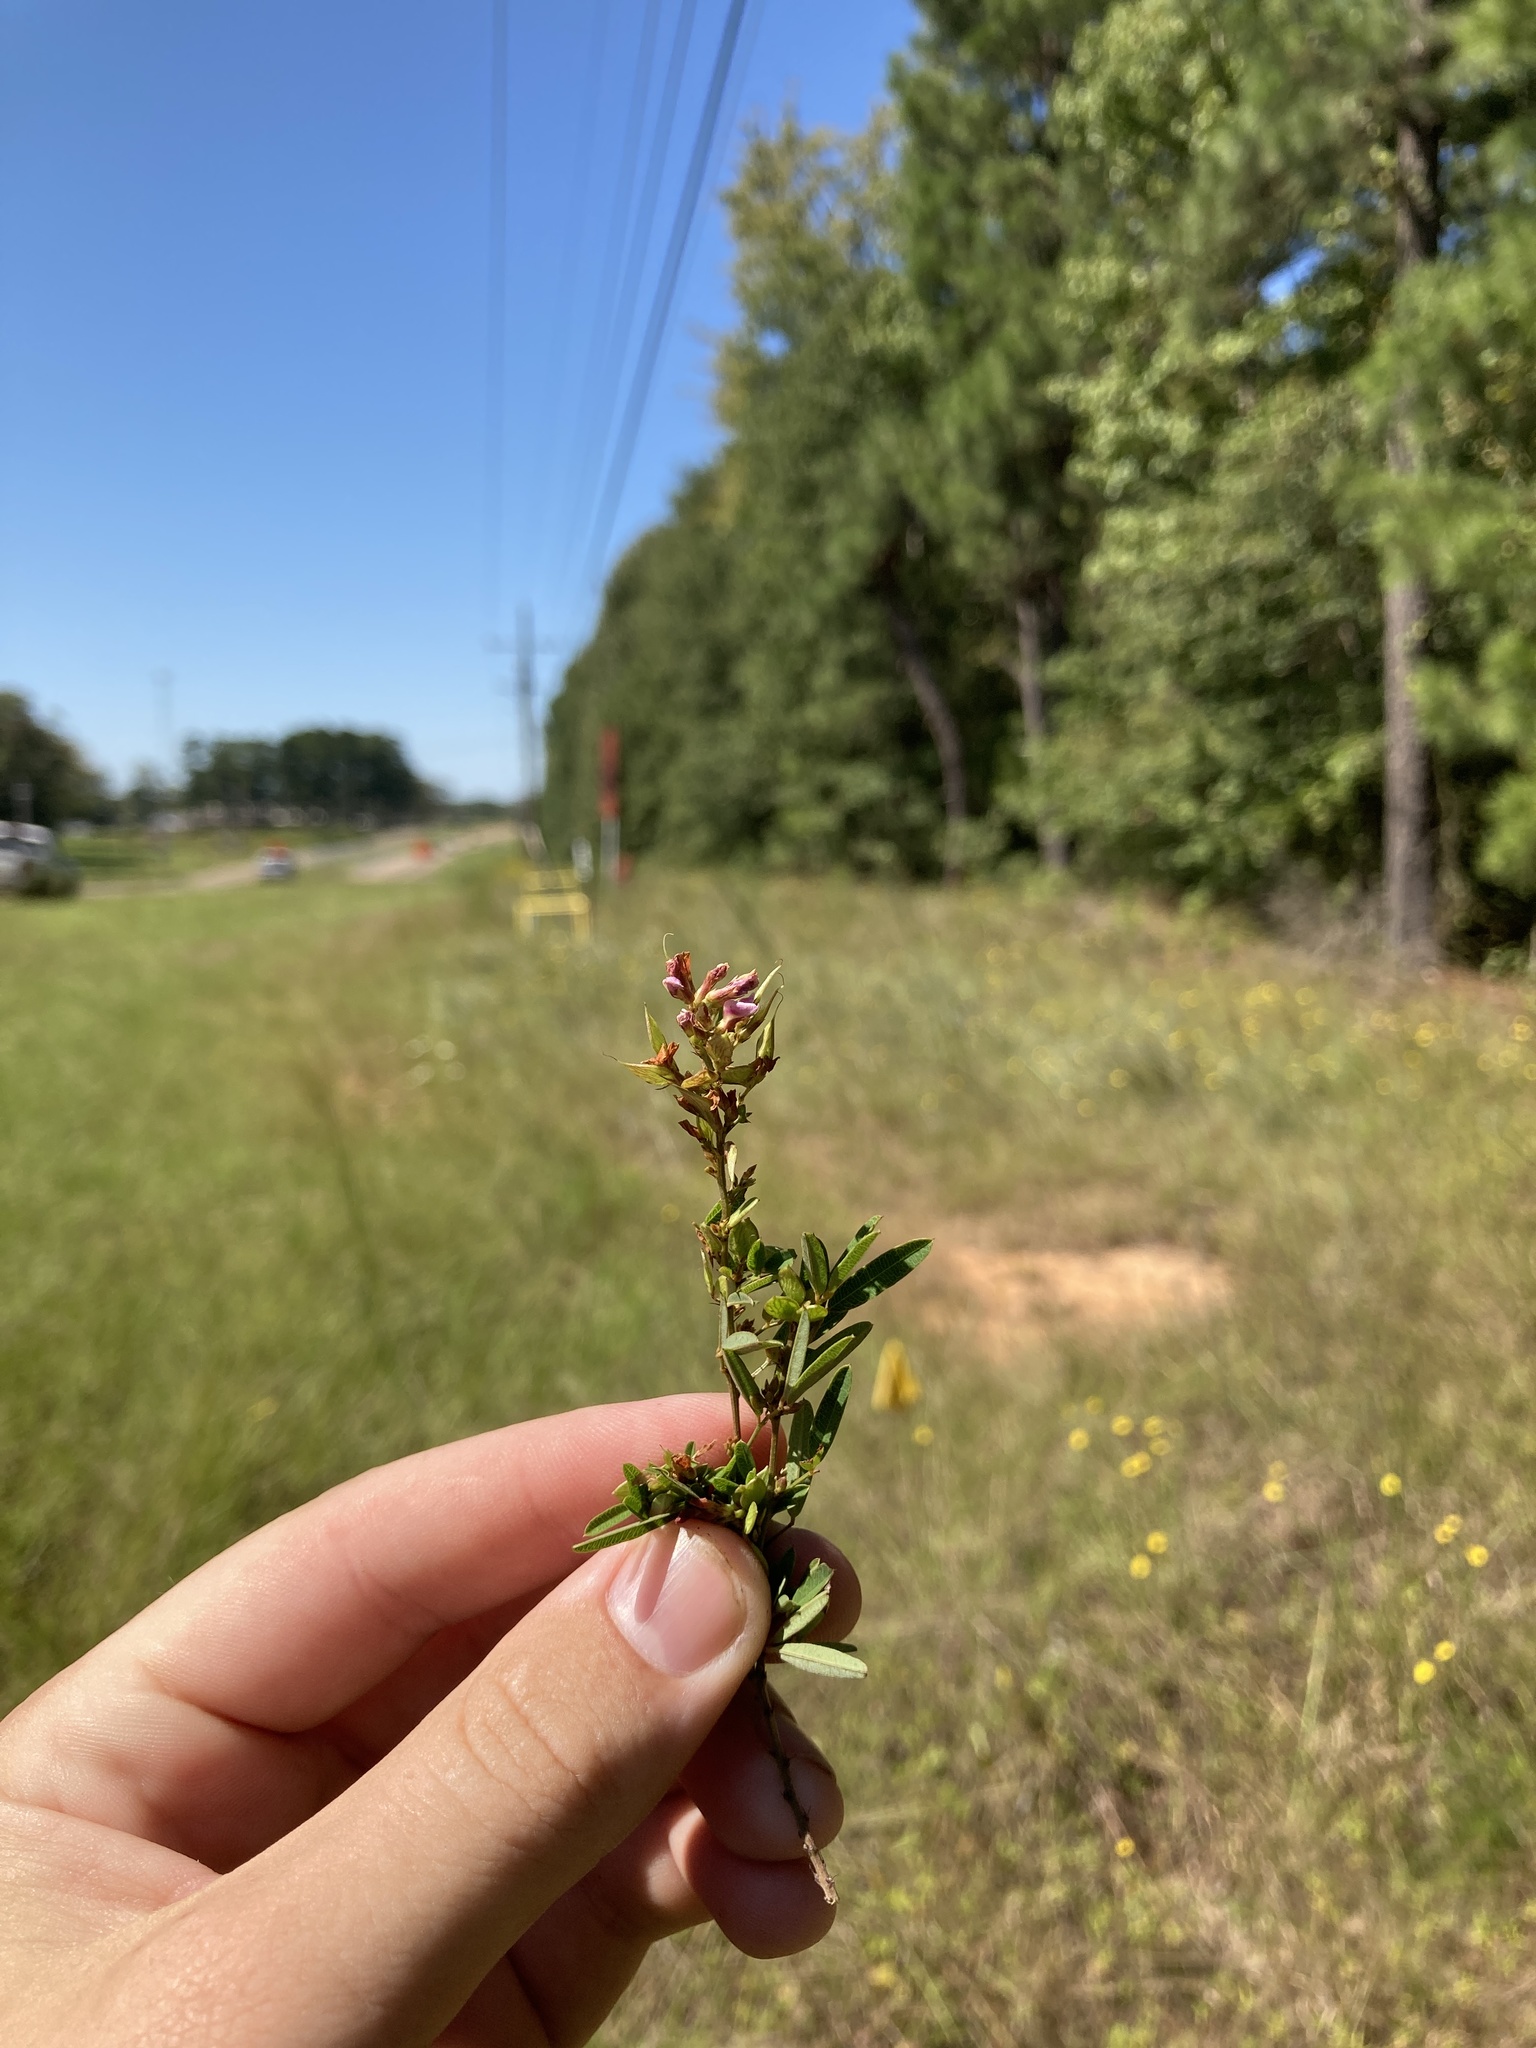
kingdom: Plantae
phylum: Tracheophyta
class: Magnoliopsida
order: Fabales
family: Fabaceae
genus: Lespedeza
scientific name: Lespedeza virginica
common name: Slender bush-clover
